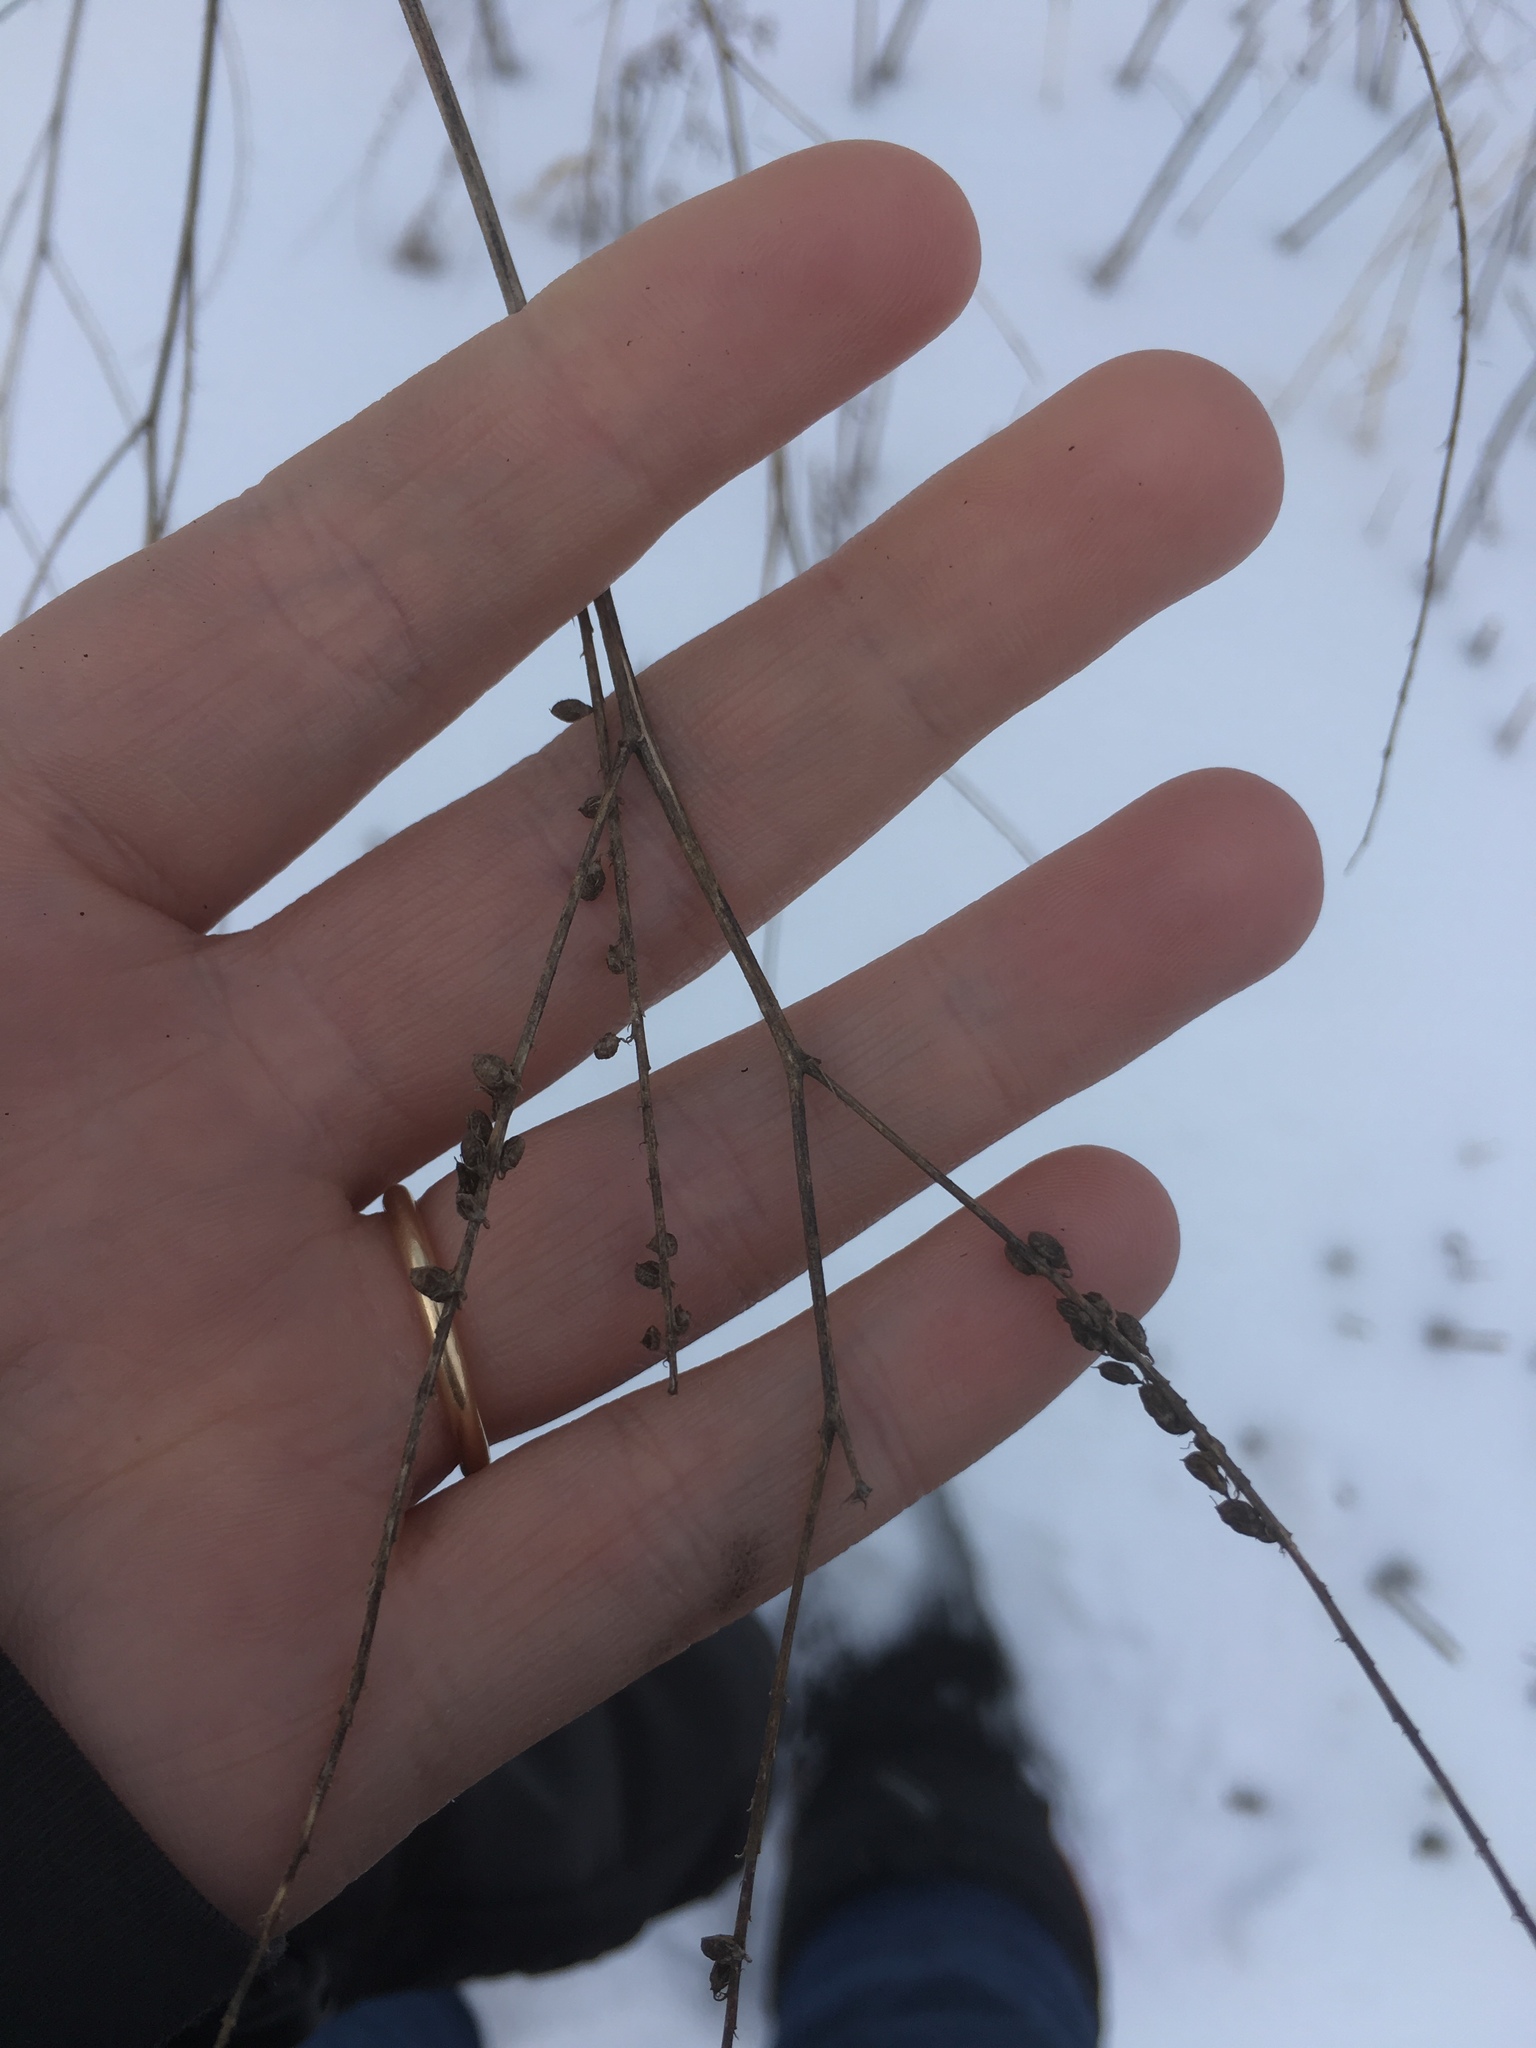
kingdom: Plantae
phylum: Tracheophyta
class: Magnoliopsida
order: Fabales
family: Fabaceae
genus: Melilotus
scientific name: Melilotus albus
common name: White melilot
